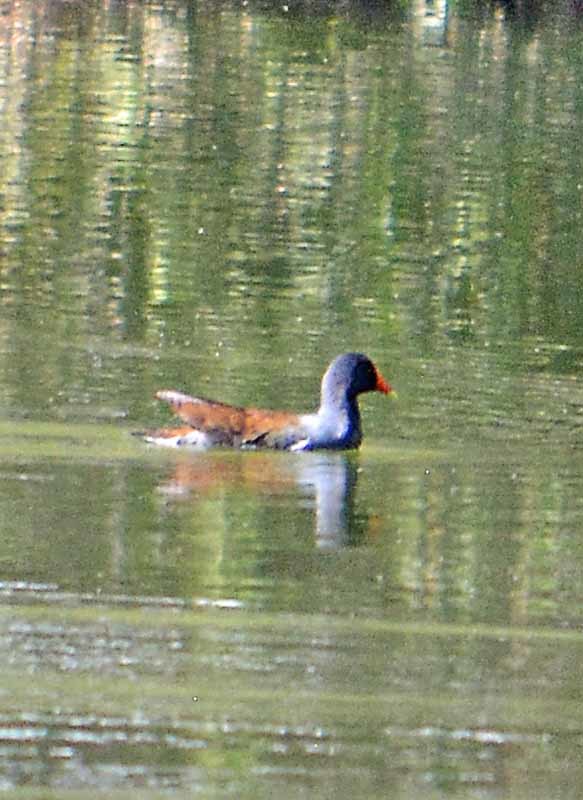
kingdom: Animalia
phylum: Chordata
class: Aves
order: Gruiformes
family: Rallidae
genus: Gallinula
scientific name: Gallinula chloropus
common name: Common moorhen
